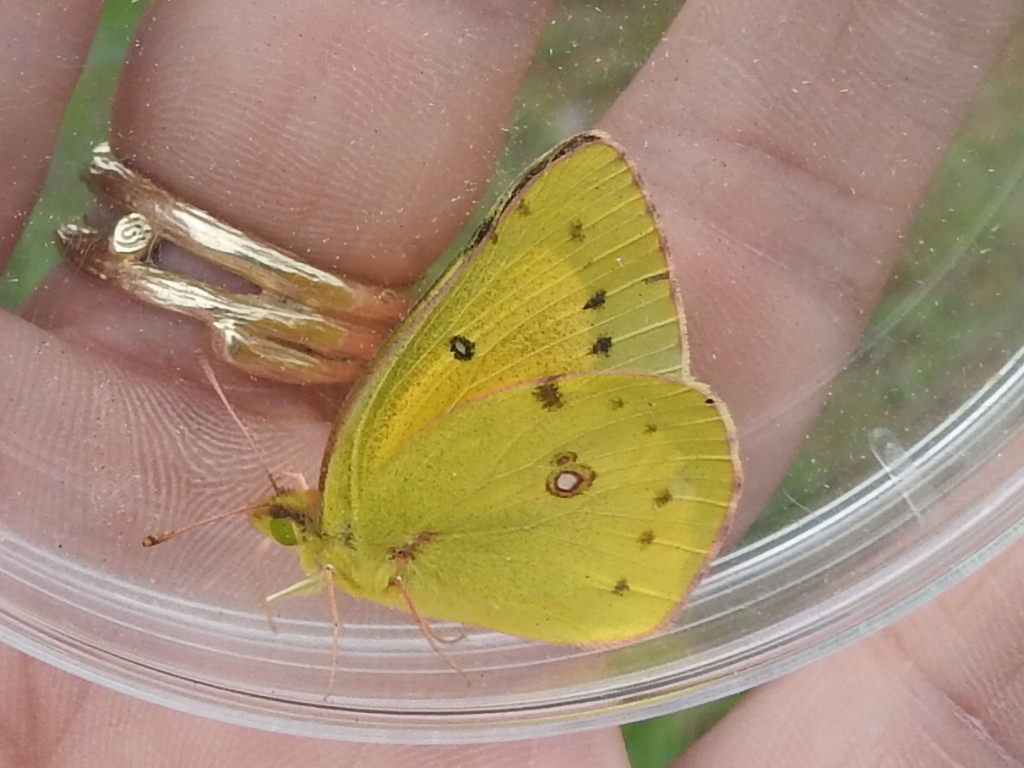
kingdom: Animalia
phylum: Arthropoda
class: Insecta
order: Lepidoptera
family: Pieridae
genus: Colias
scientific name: Colias eurytheme
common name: Alfalfa butterfly
